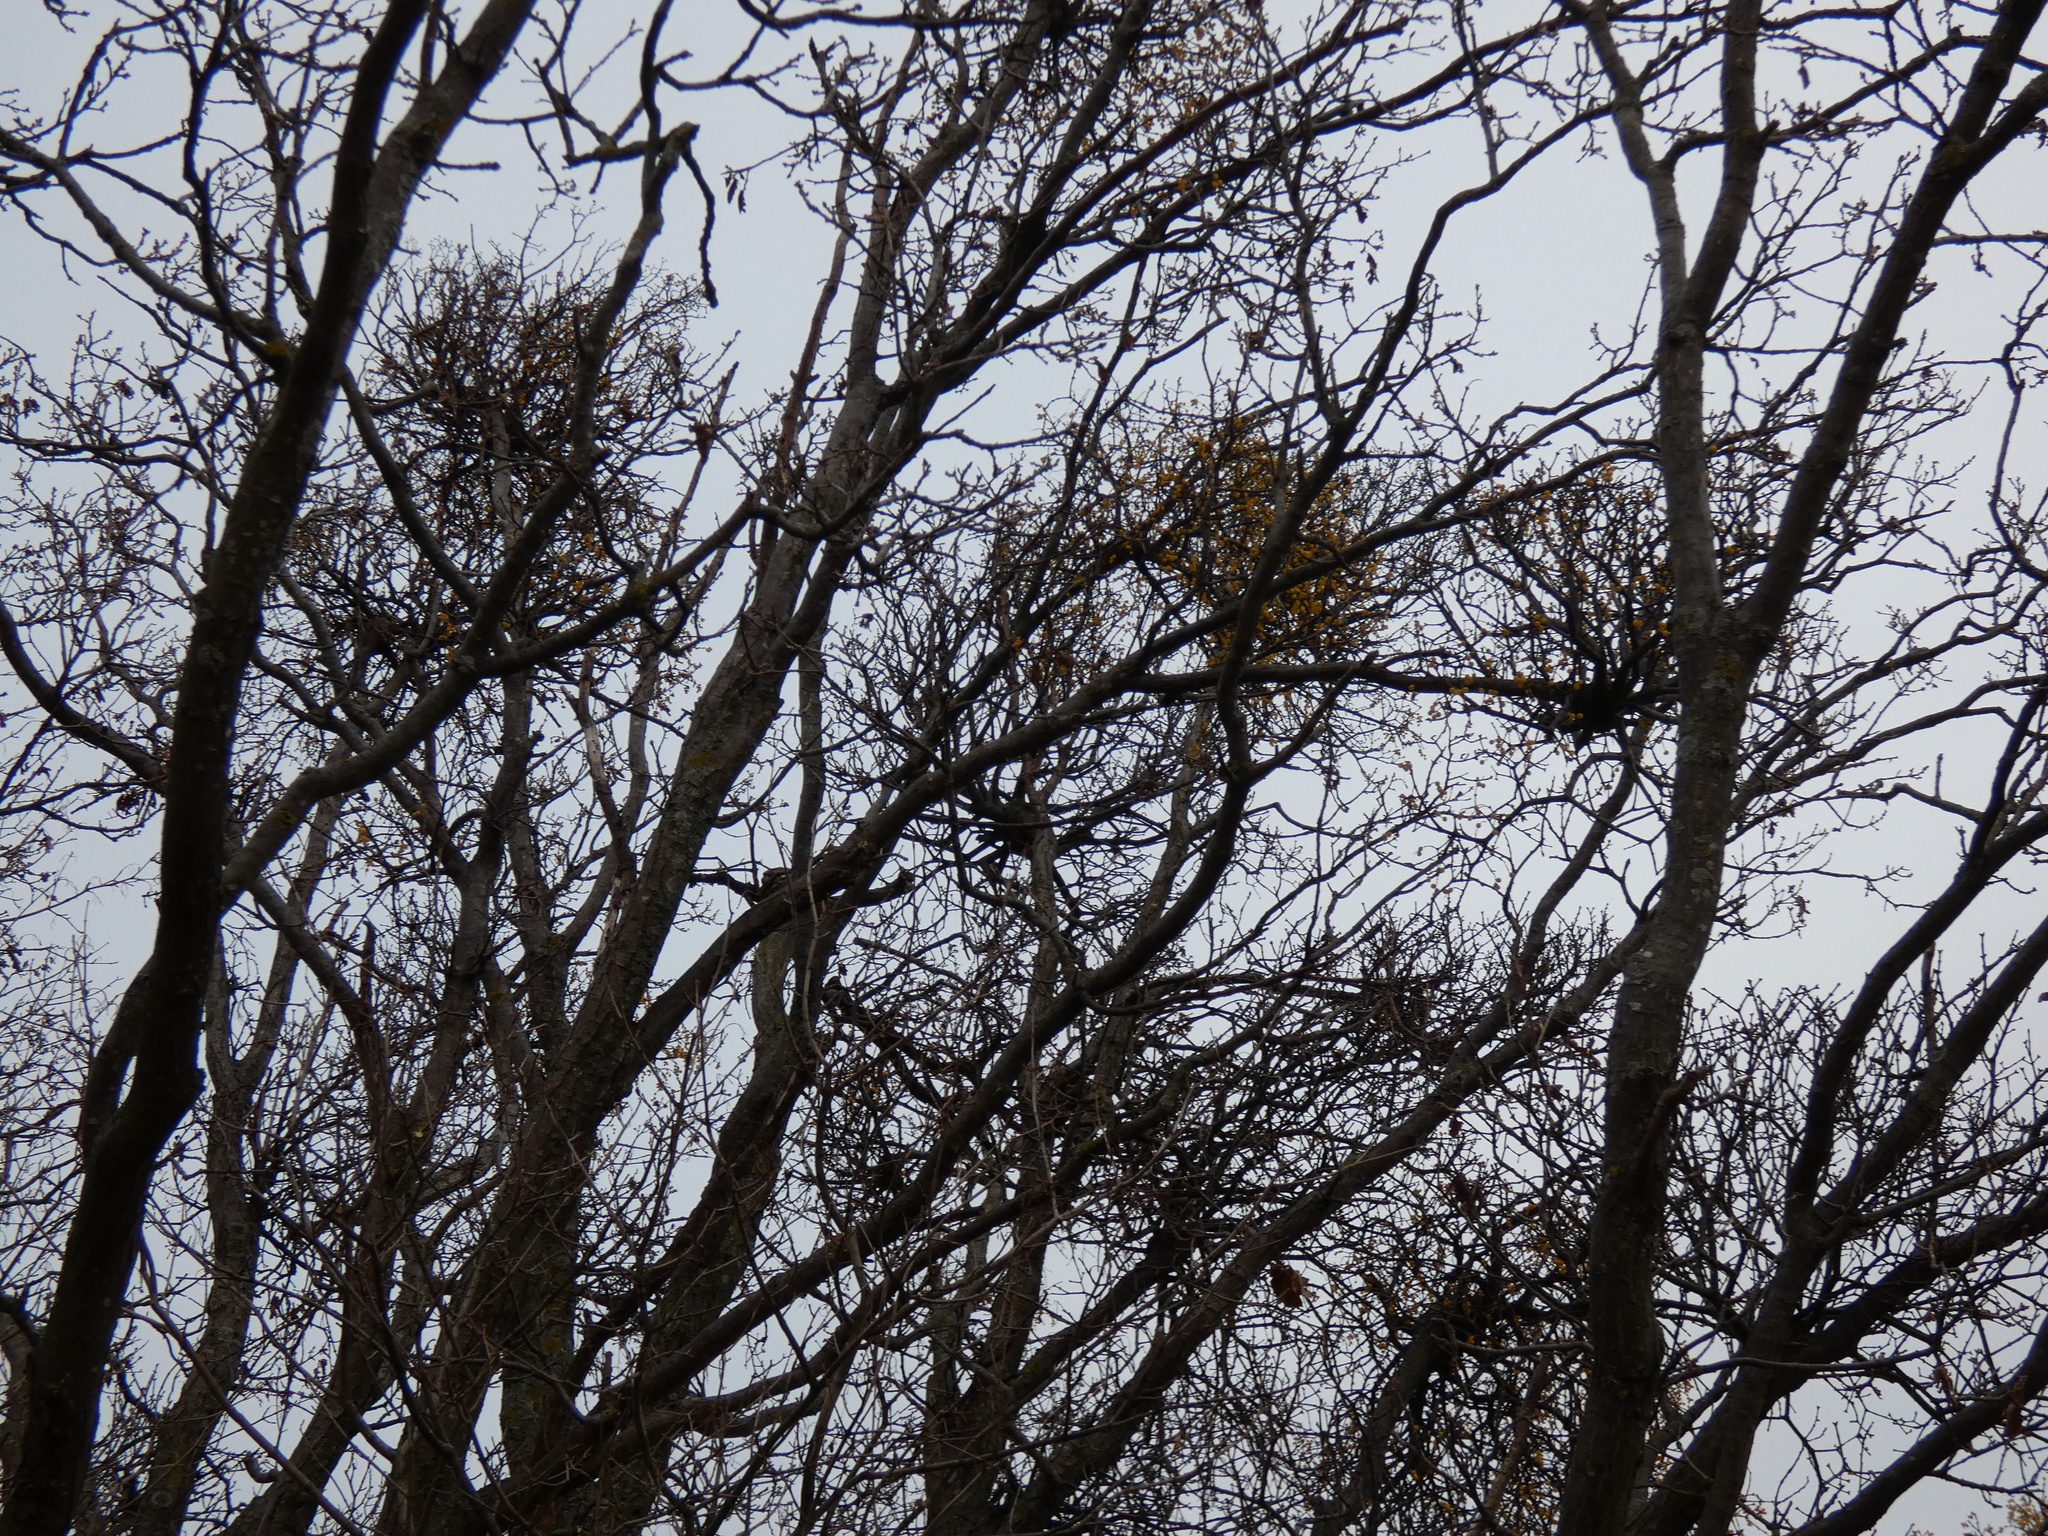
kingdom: Plantae
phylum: Tracheophyta
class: Magnoliopsida
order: Santalales
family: Loranthaceae
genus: Loranthus
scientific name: Loranthus europaeus
